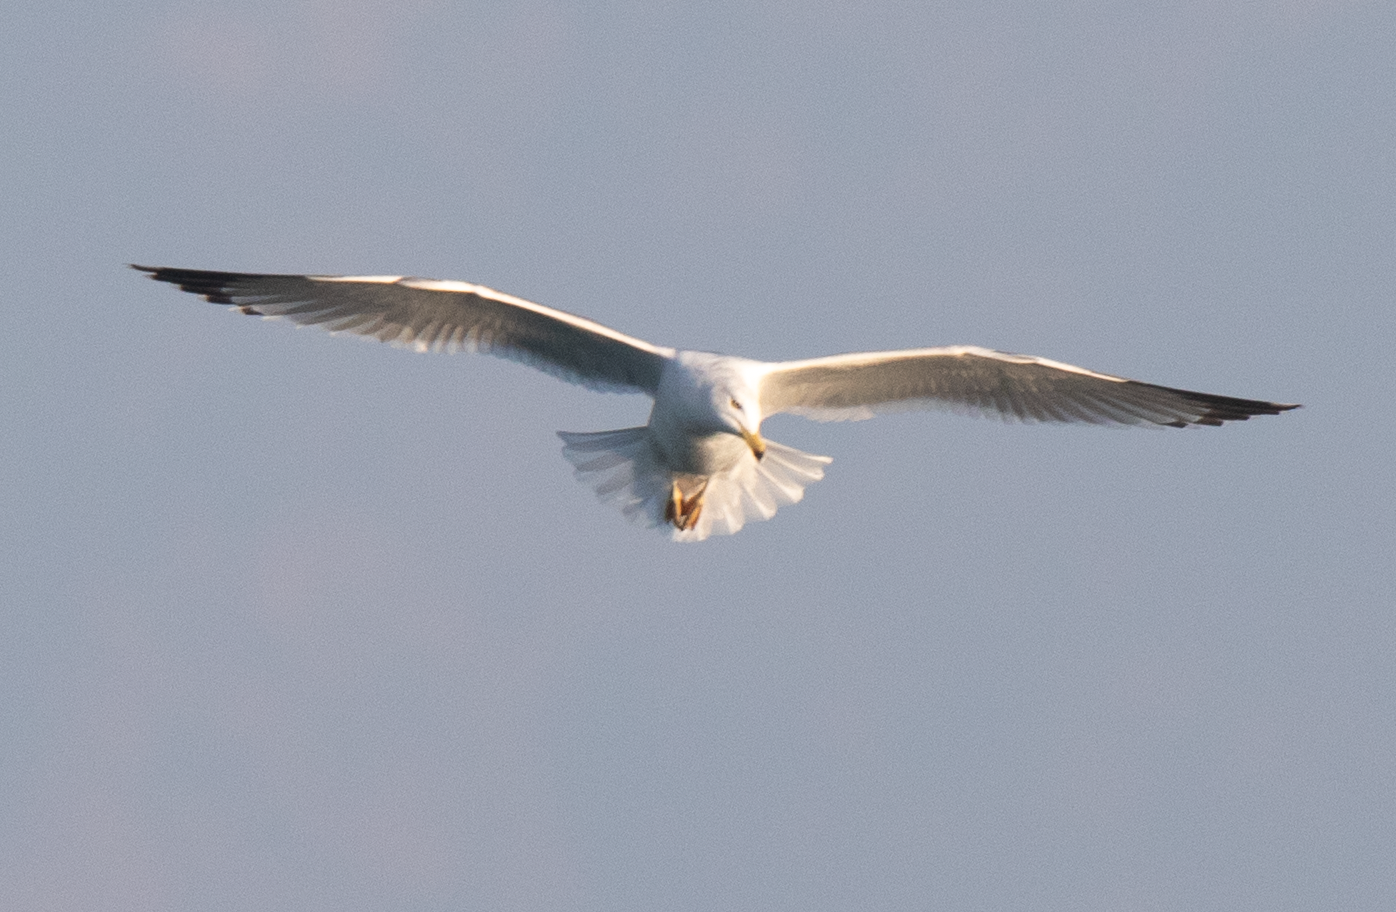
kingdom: Animalia
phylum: Chordata
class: Aves
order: Charadriiformes
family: Laridae
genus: Larus
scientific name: Larus michahellis
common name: Yellow-legged gull
